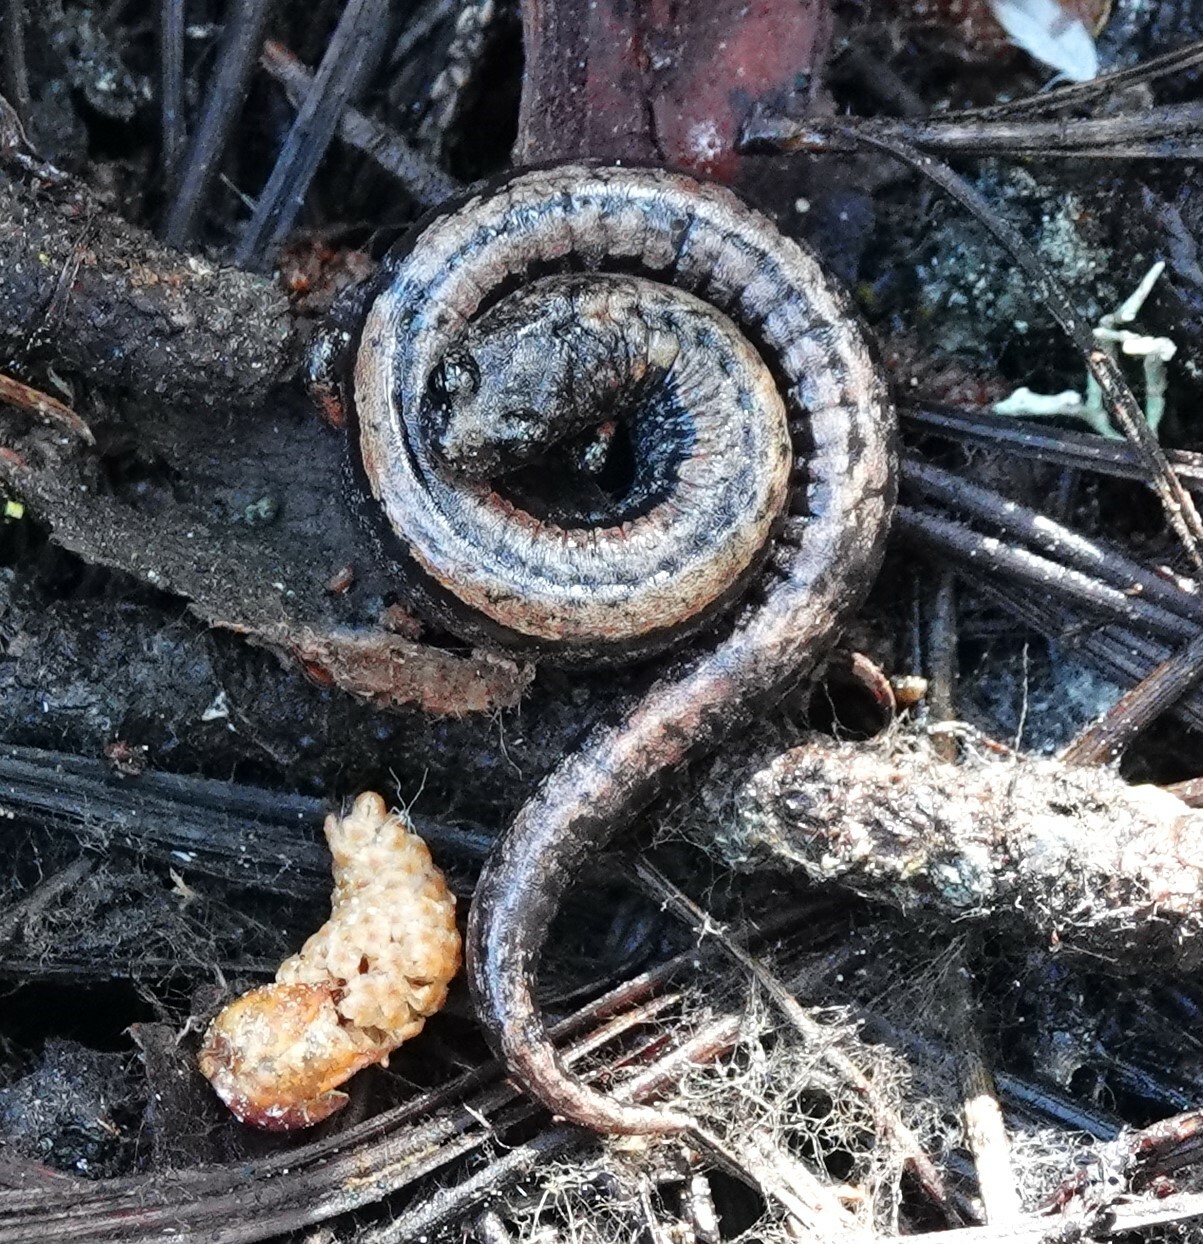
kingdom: Animalia
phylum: Chordata
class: Amphibia
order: Caudata
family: Plethodontidae
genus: Batrachoseps
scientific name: Batrachoseps luciae
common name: Santa lucia mountains slender salamander
